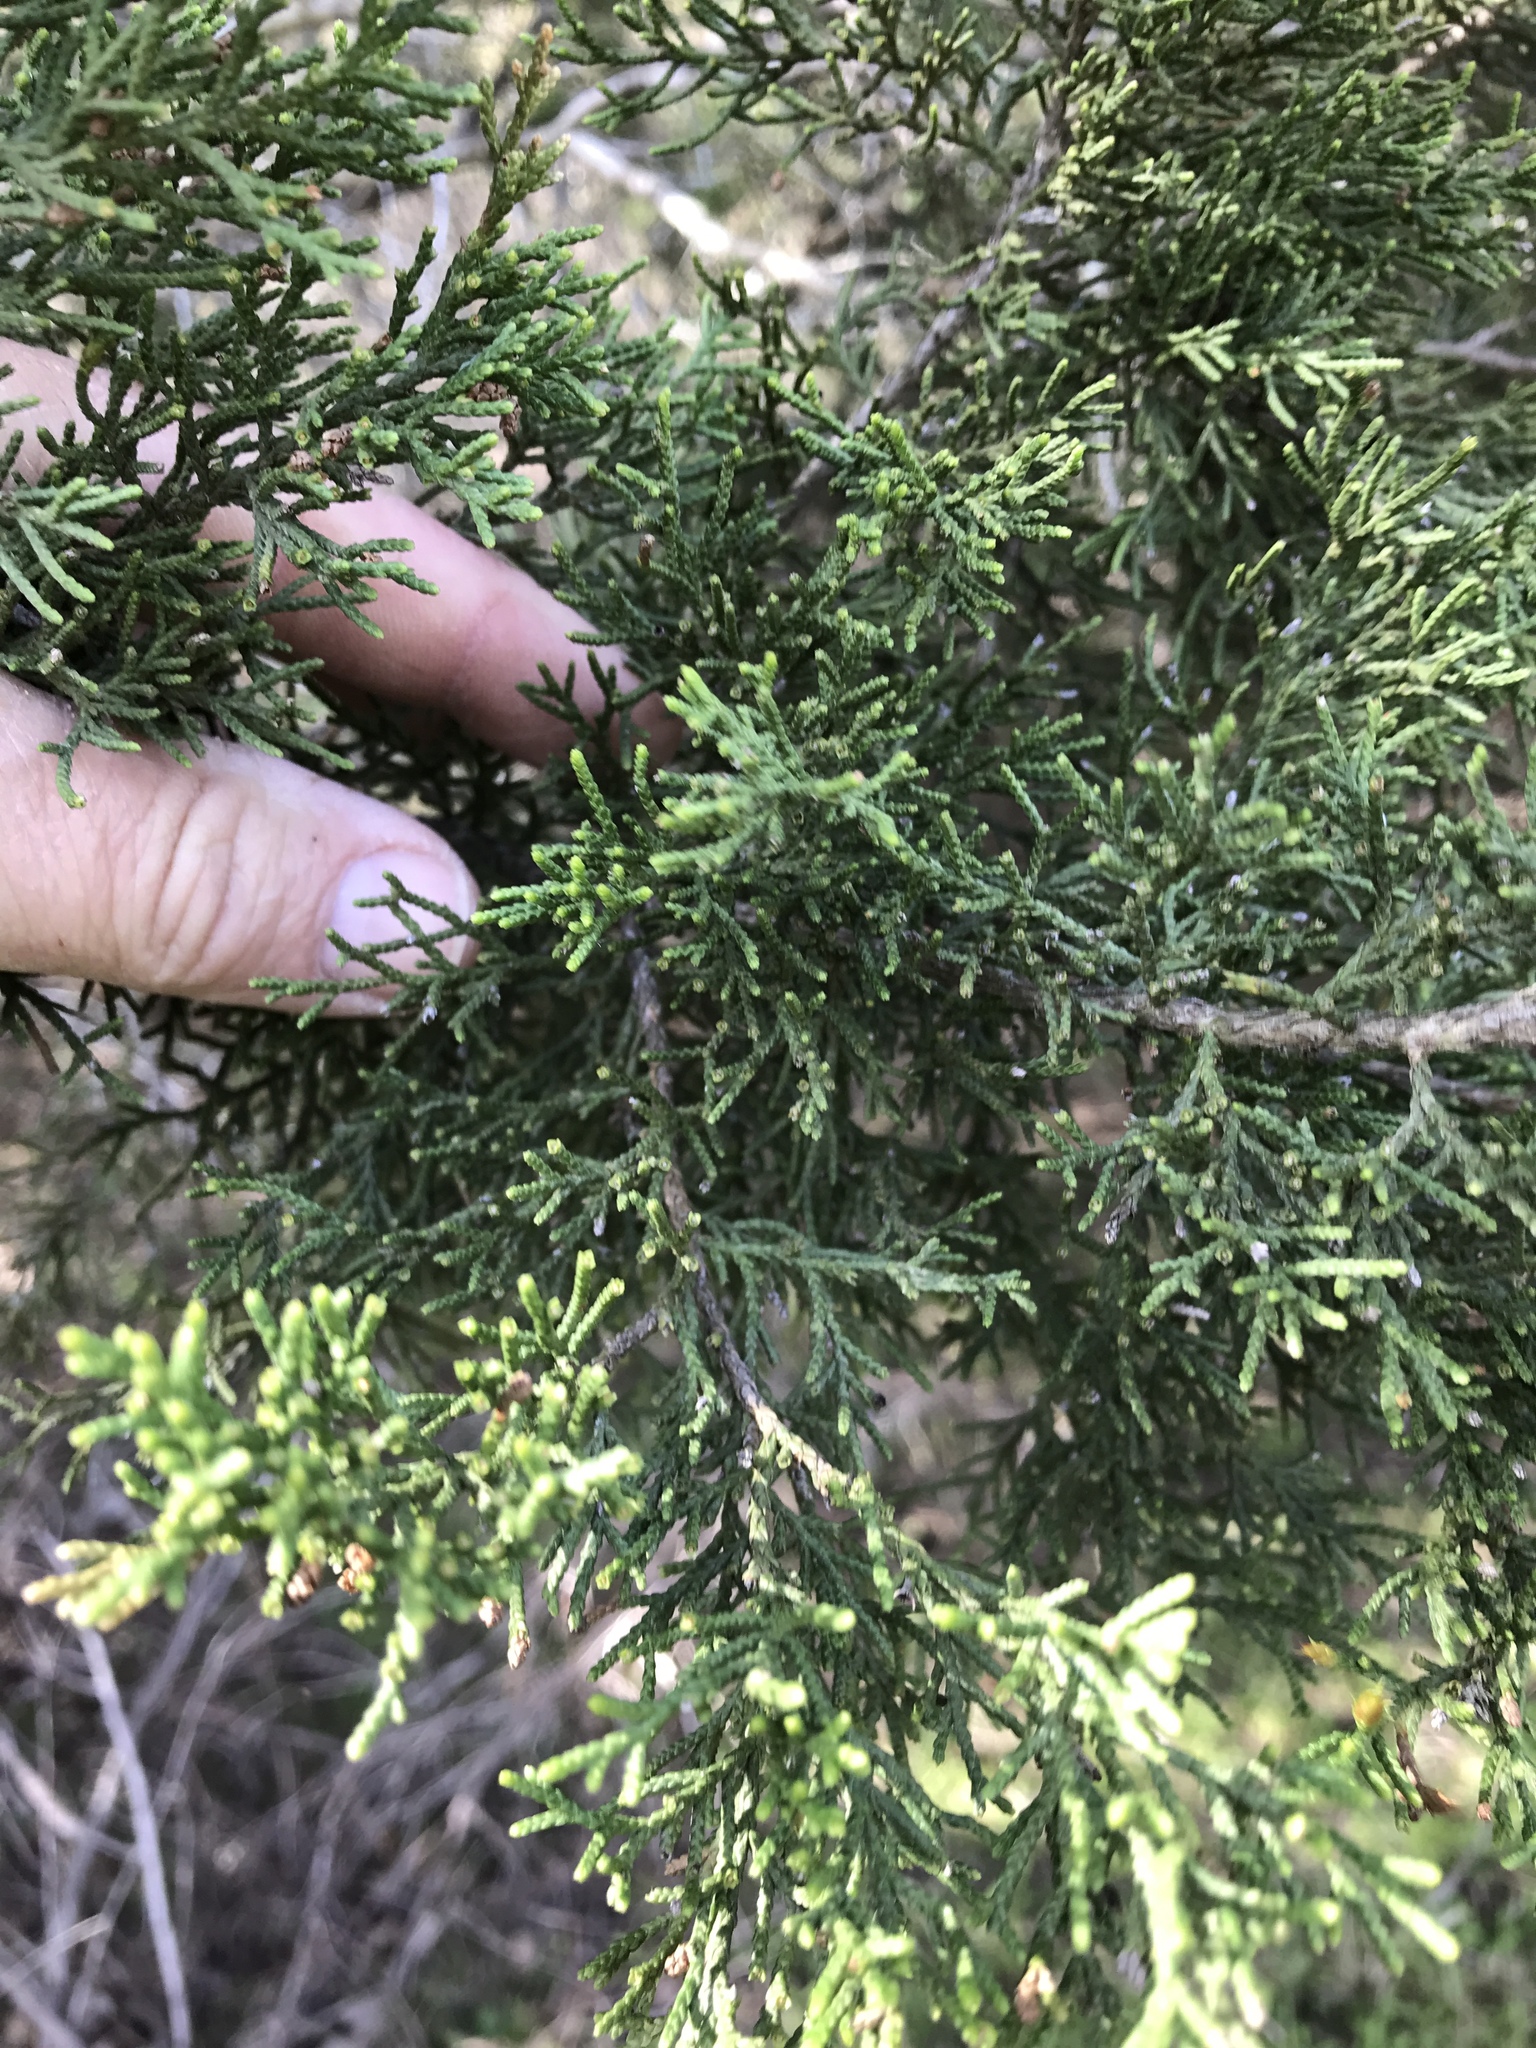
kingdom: Plantae
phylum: Tracheophyta
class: Pinopsida
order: Pinales
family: Cupressaceae
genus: Juniperus
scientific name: Juniperus ashei
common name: Mexican juniper
